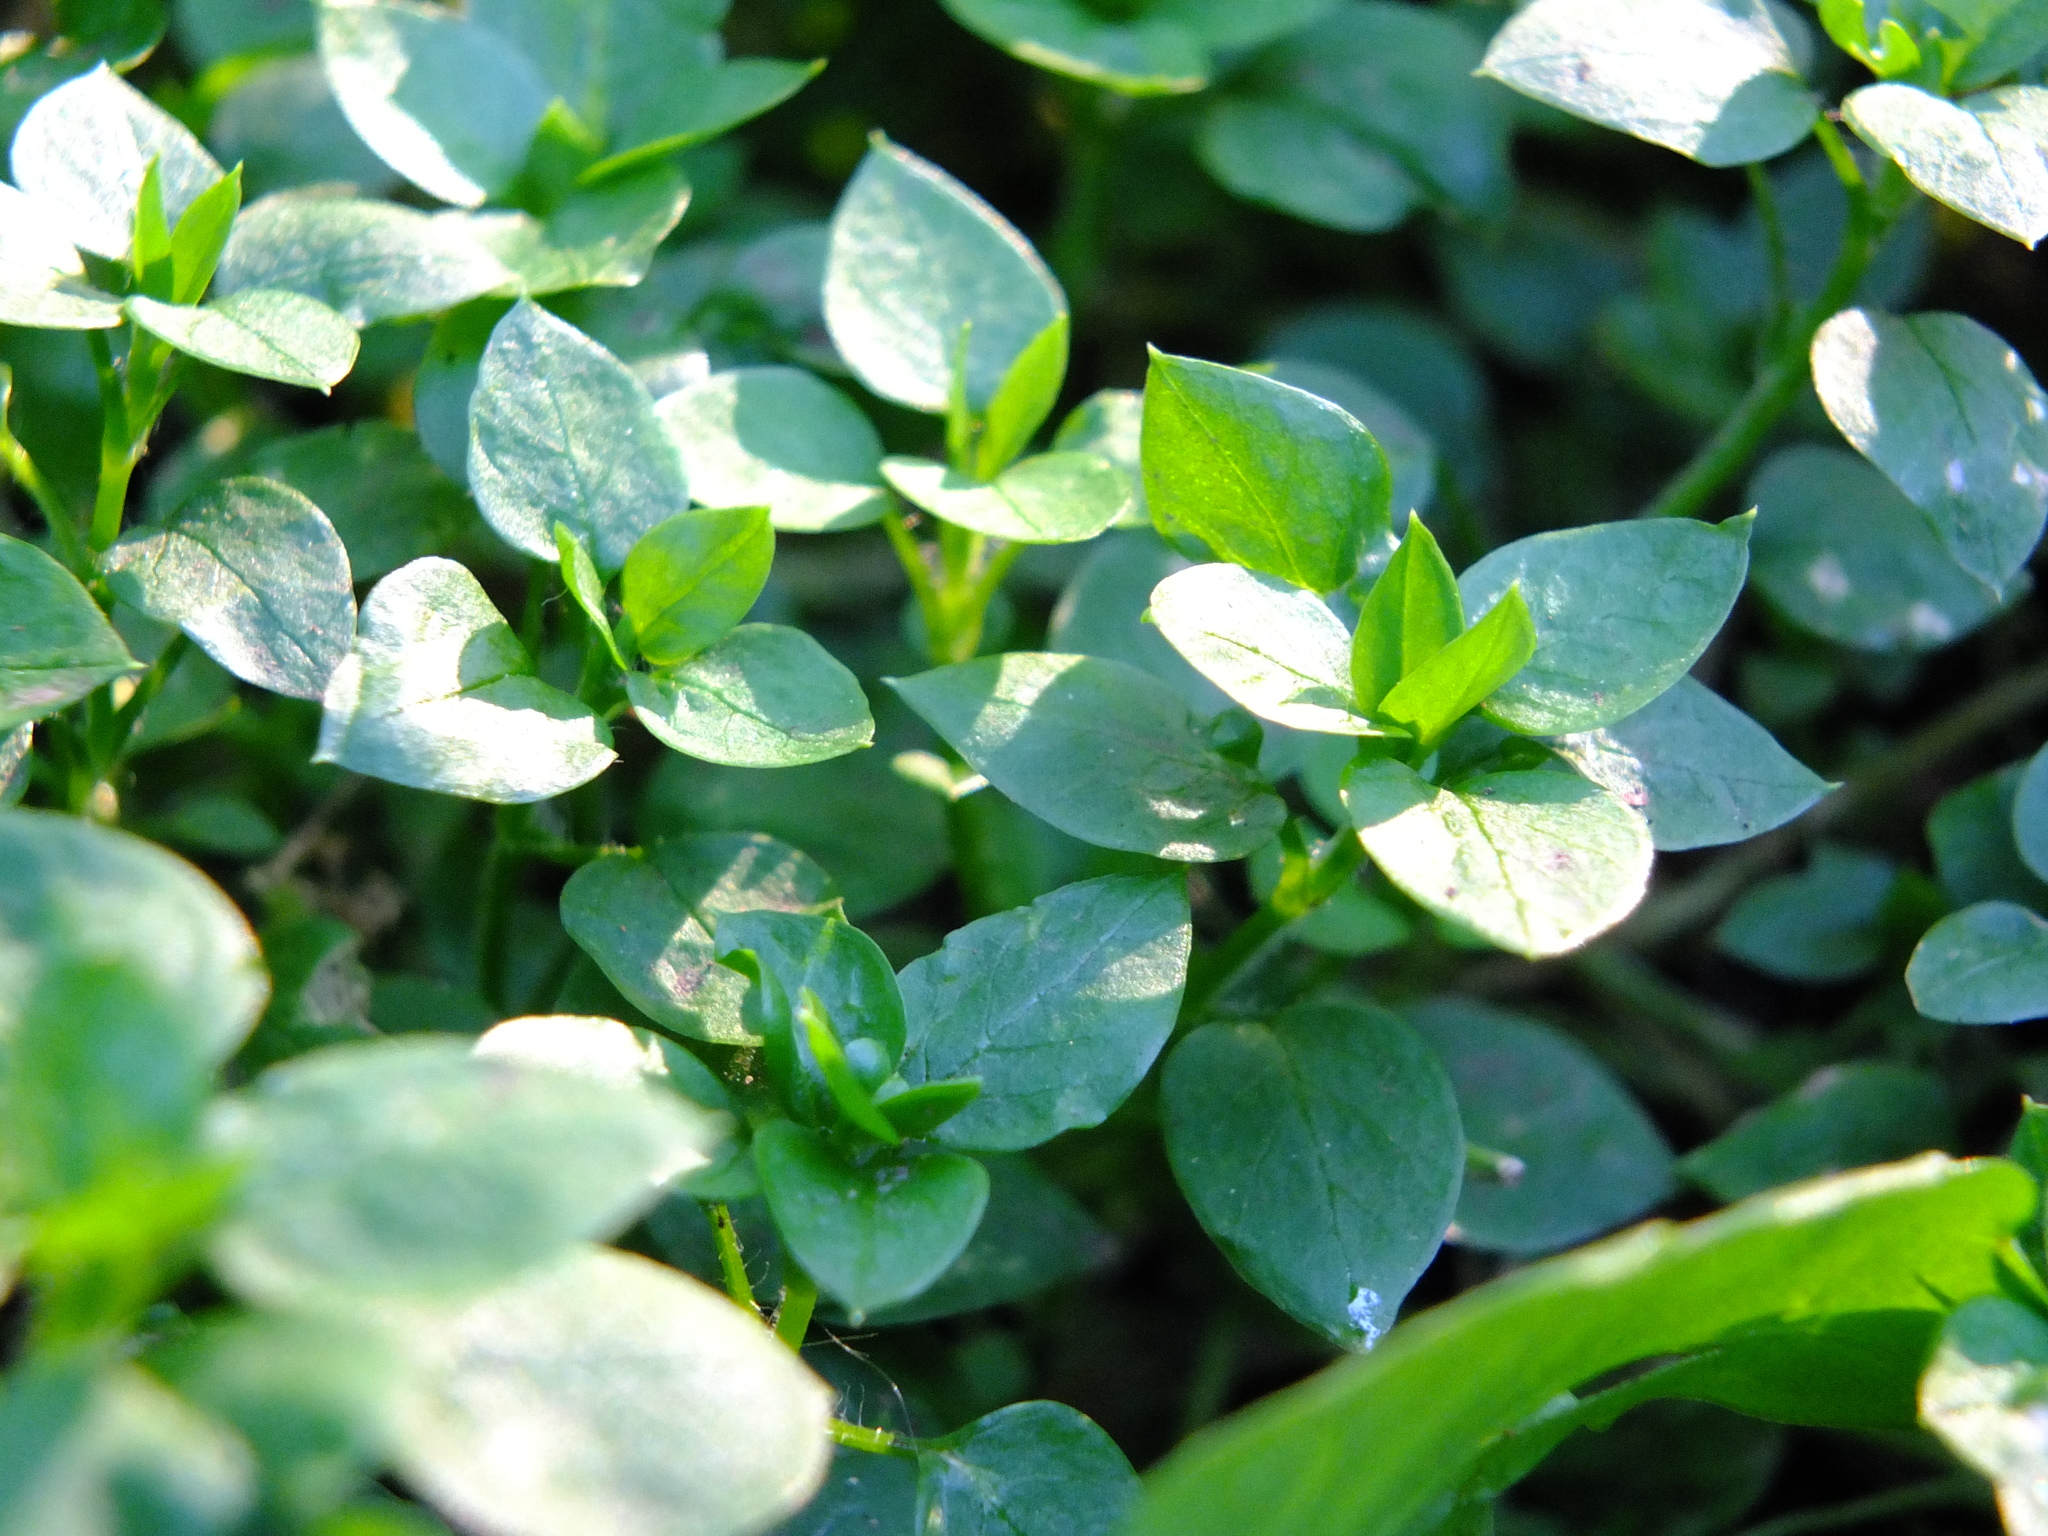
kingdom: Plantae
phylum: Tracheophyta
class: Magnoliopsida
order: Caryophyllales
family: Caryophyllaceae
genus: Stellaria
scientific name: Stellaria media
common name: Common chickweed
